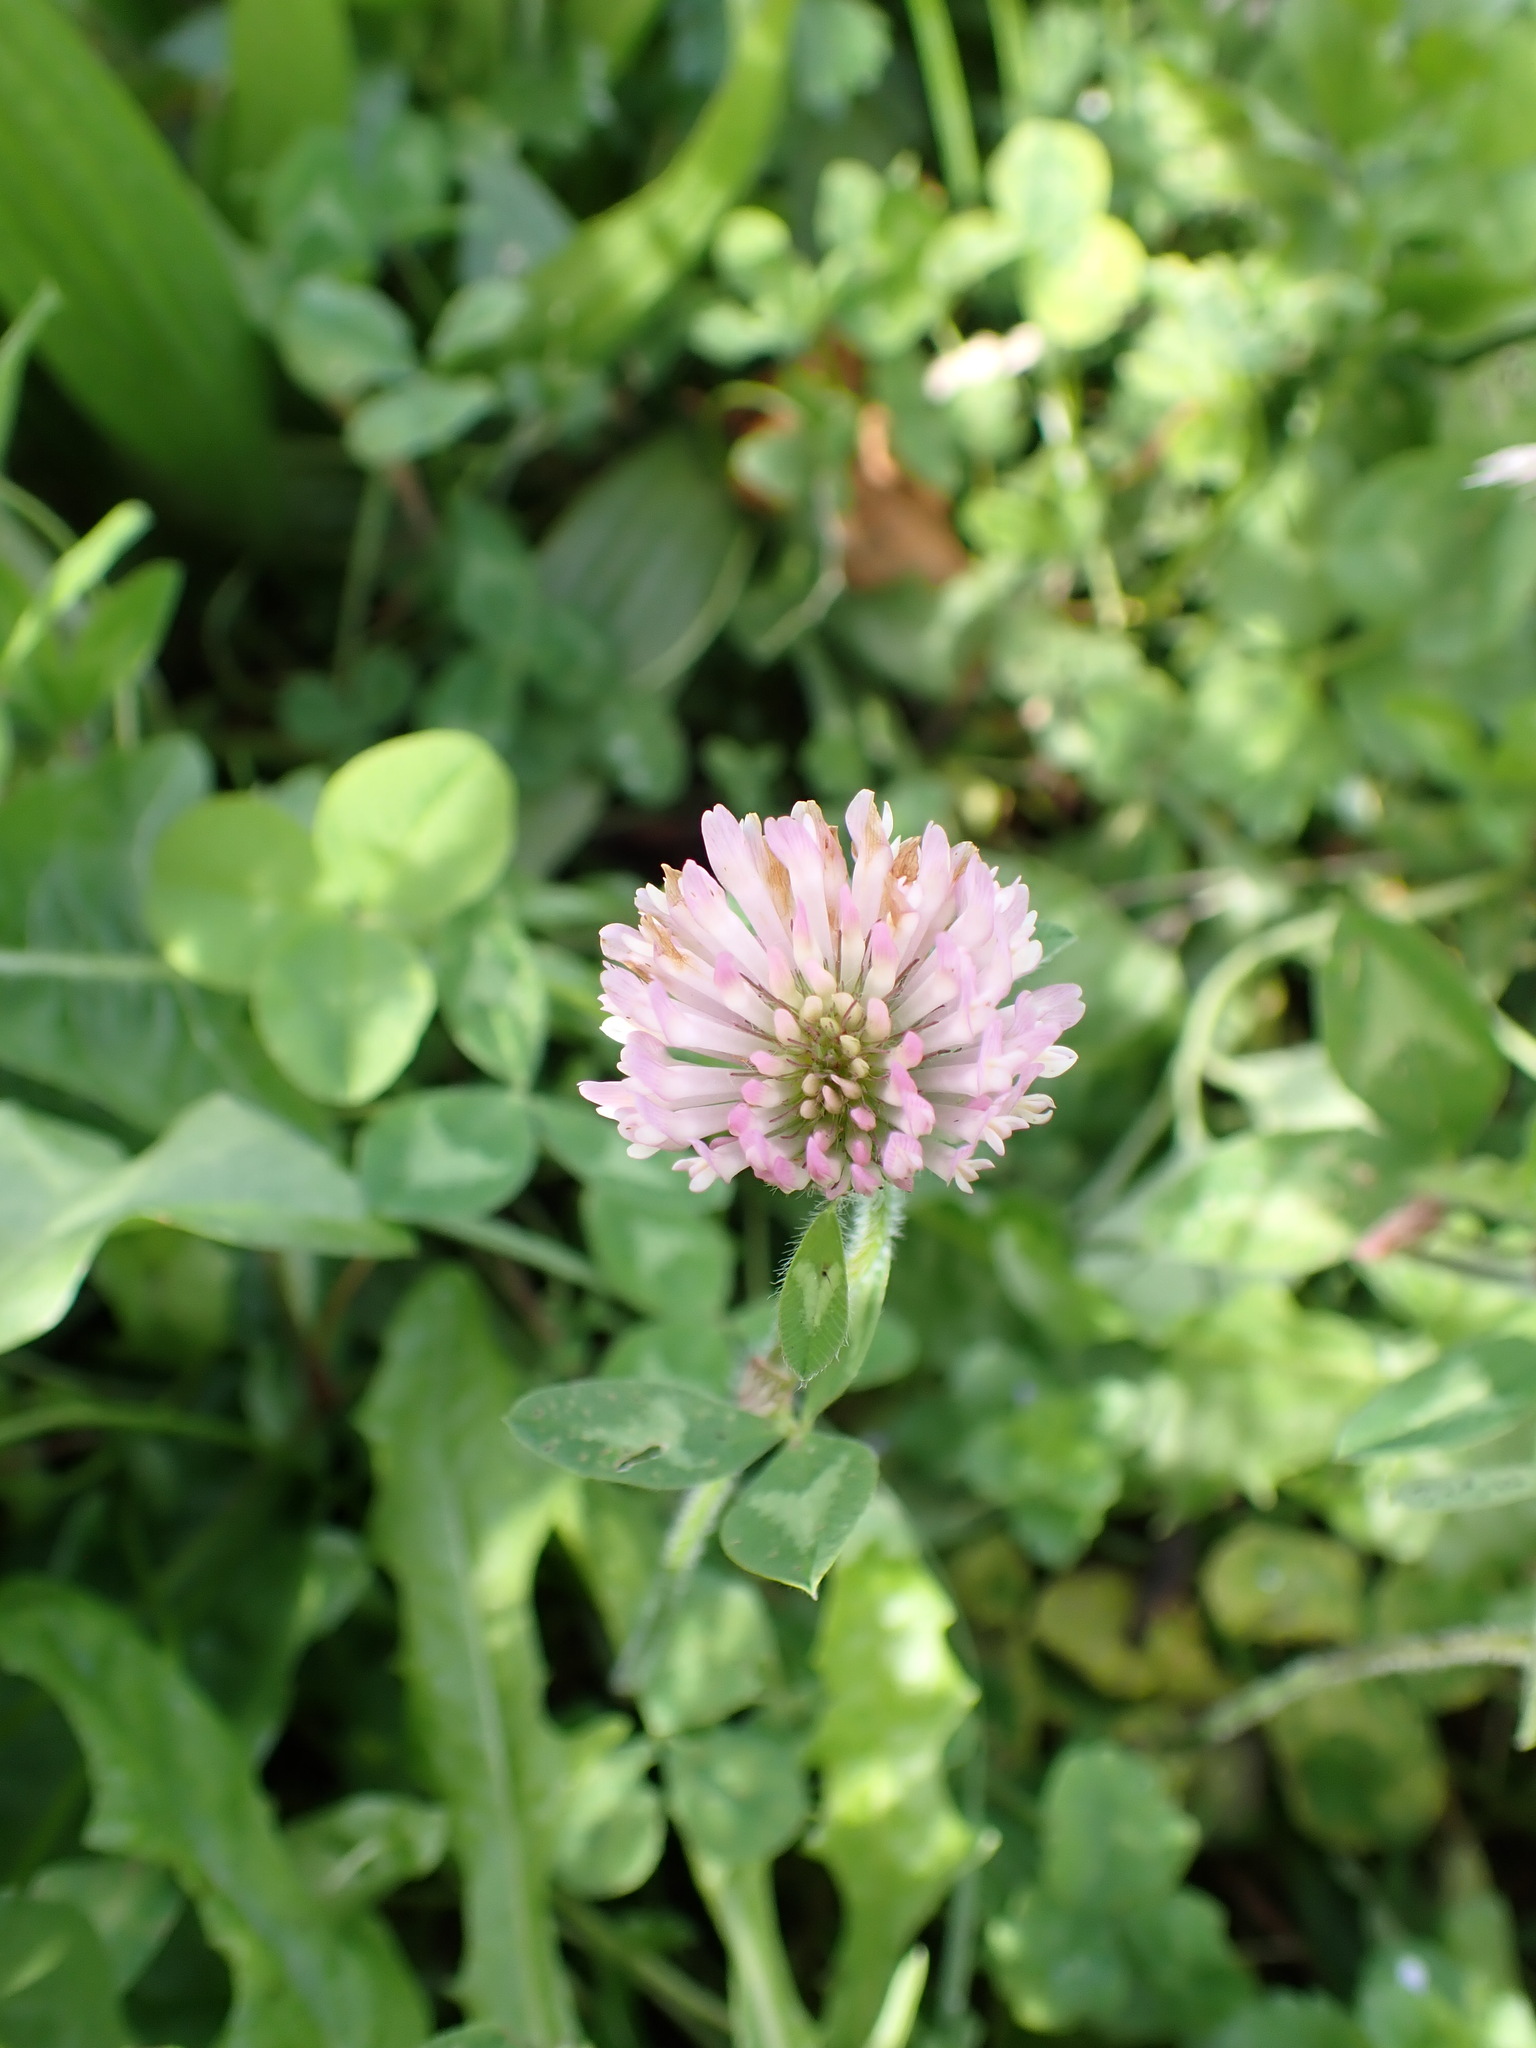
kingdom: Plantae
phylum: Tracheophyta
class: Magnoliopsida
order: Fabales
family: Fabaceae
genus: Trifolium
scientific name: Trifolium pratense
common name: Red clover
